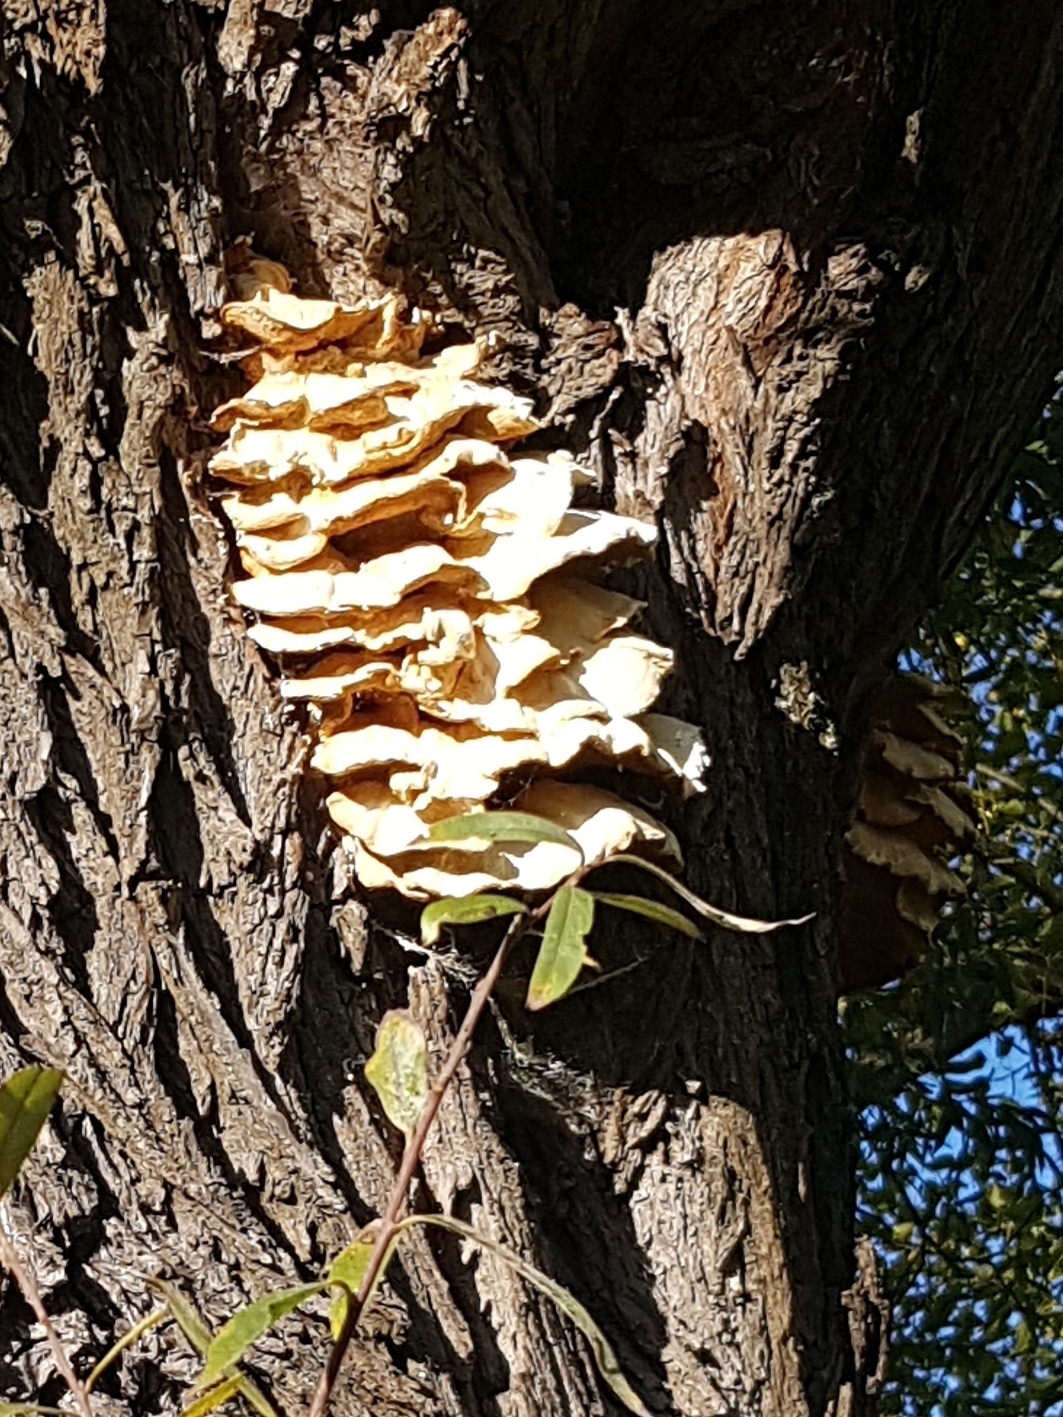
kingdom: Fungi
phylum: Basidiomycota
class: Agaricomycetes
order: Polyporales
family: Laetiporaceae
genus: Laetiporus
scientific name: Laetiporus sulphureus
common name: Chicken of the woods
